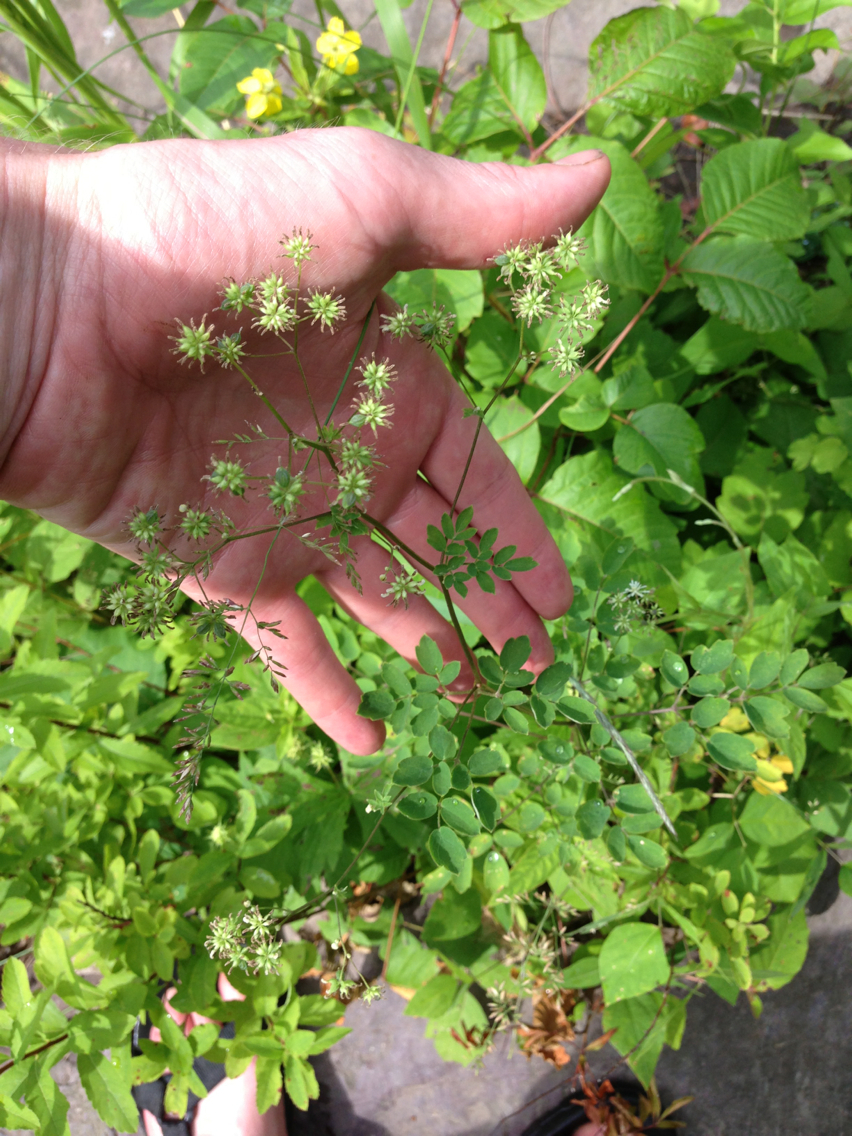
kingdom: Plantae
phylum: Tracheophyta
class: Magnoliopsida
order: Ranunculales
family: Ranunculaceae
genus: Thalictrum
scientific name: Thalictrum pubescens
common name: King-of-the-meadow
